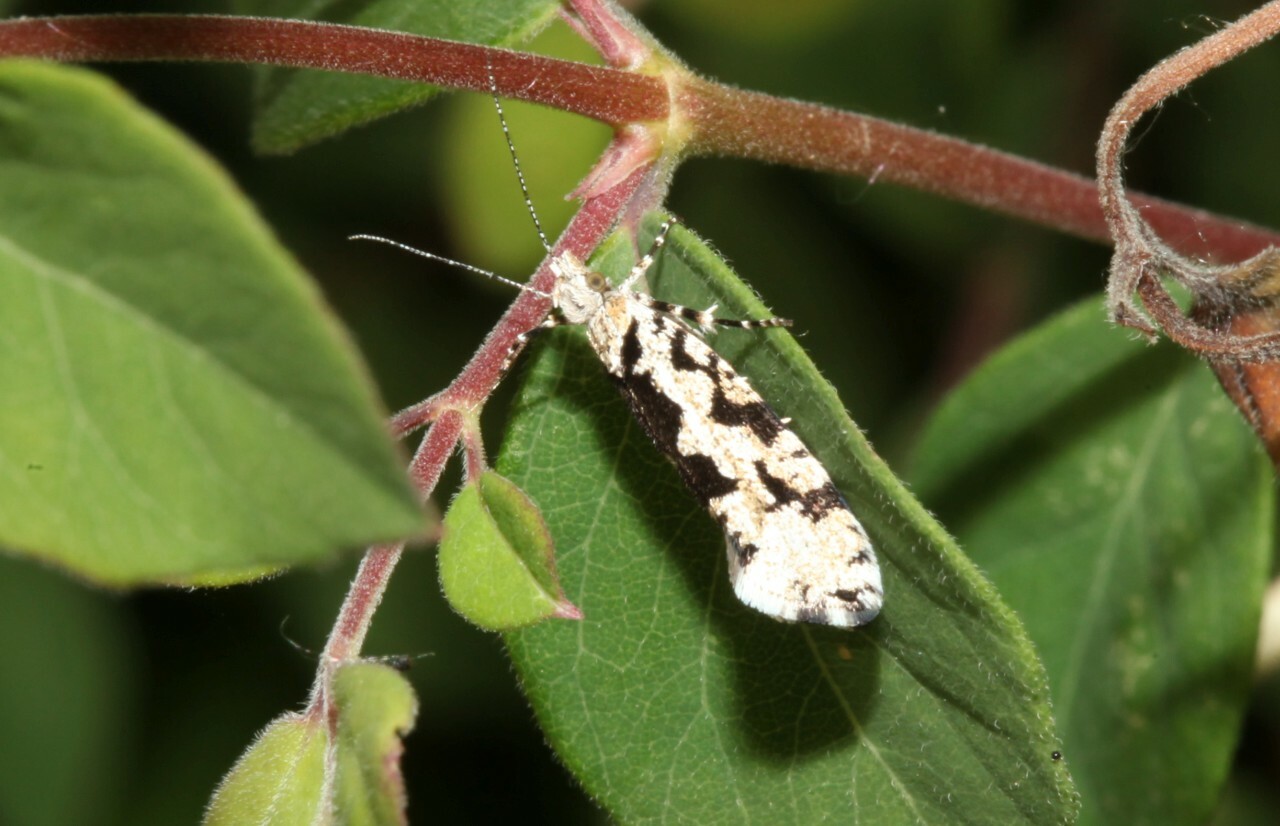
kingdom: Animalia
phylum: Arthropoda
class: Insecta
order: Lepidoptera
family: Plutellidae
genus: Ypsolophus
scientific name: Ypsolophus sequella
